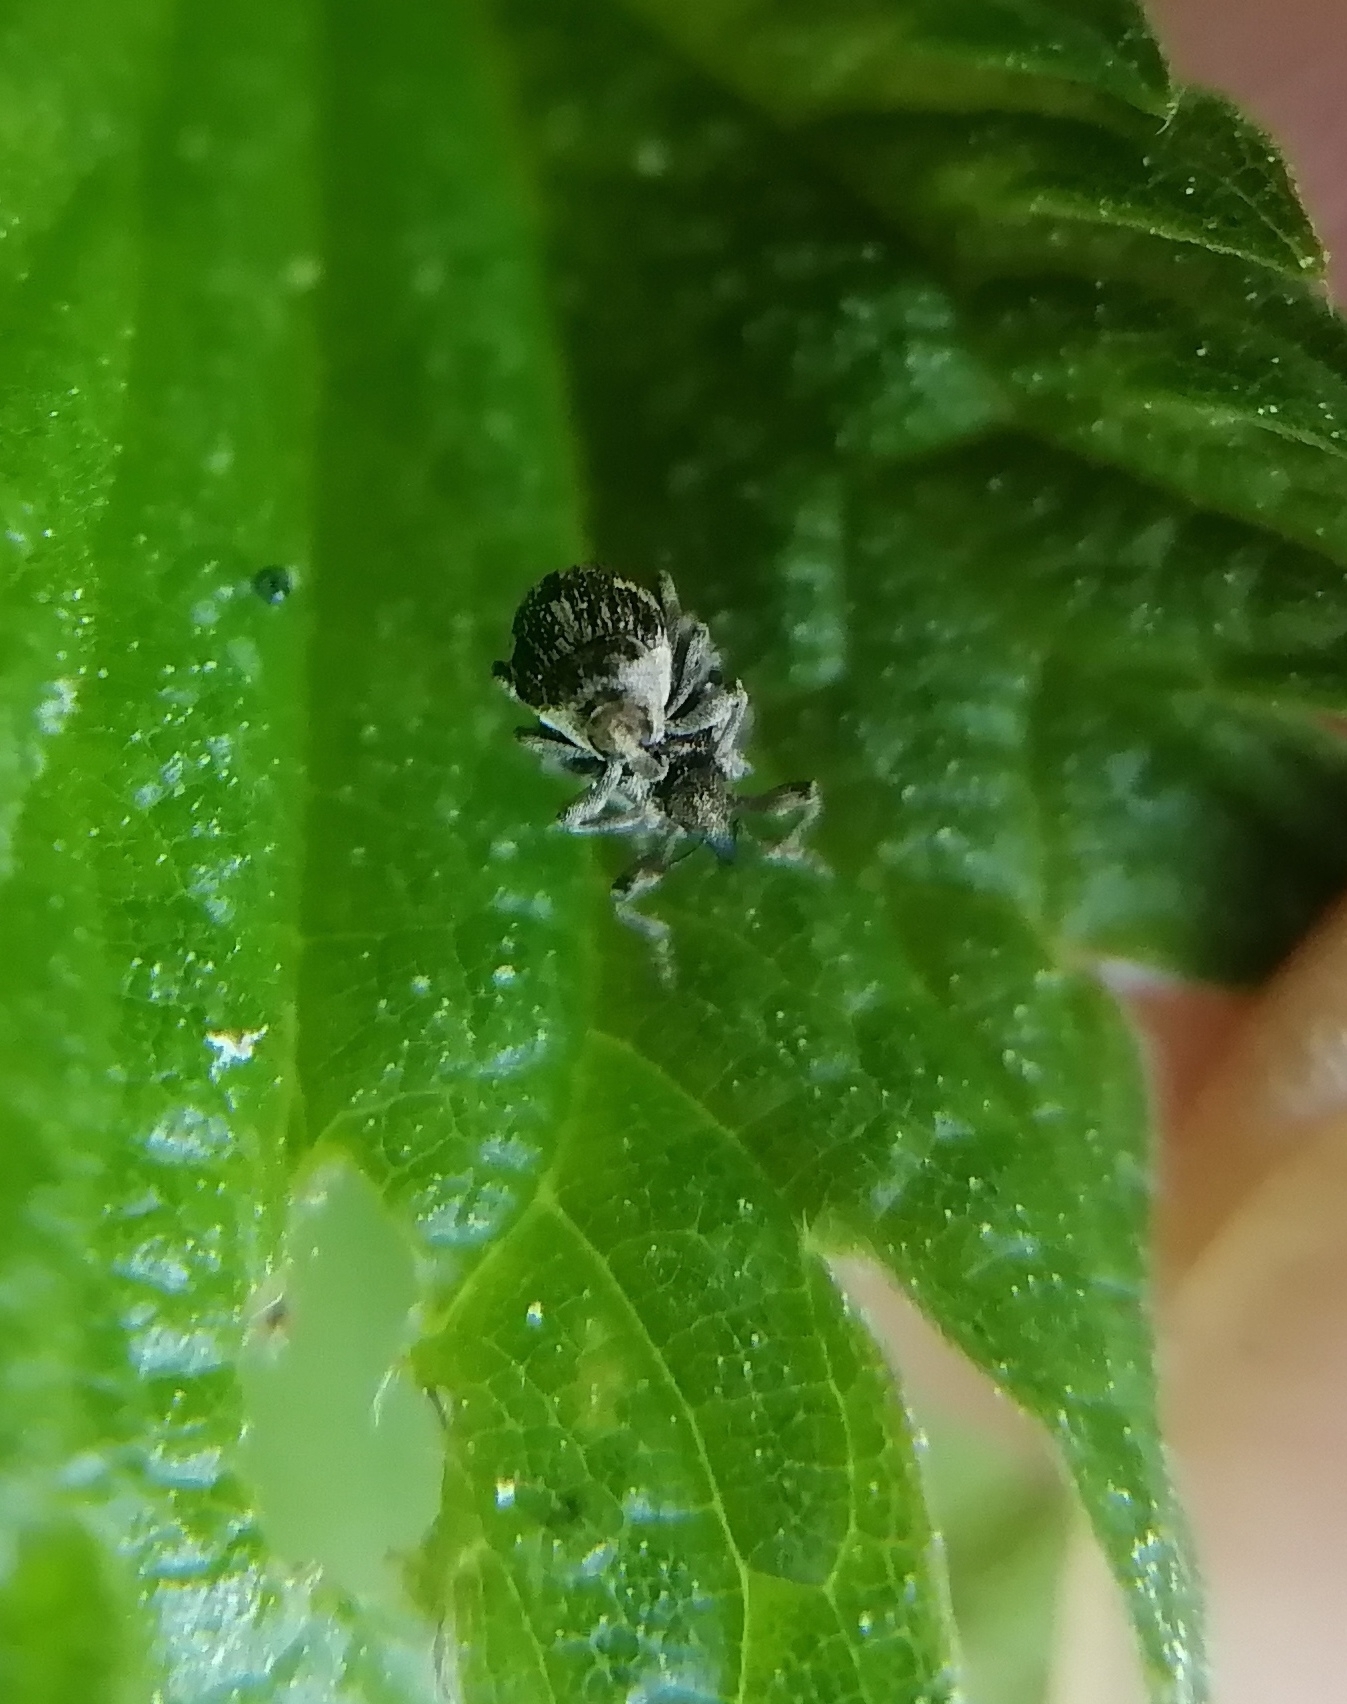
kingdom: Animalia
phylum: Arthropoda
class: Insecta
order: Coleoptera
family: Curculionidae
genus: Nedyus
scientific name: Nedyus quadrimaculatus
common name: Small nettle weevil
